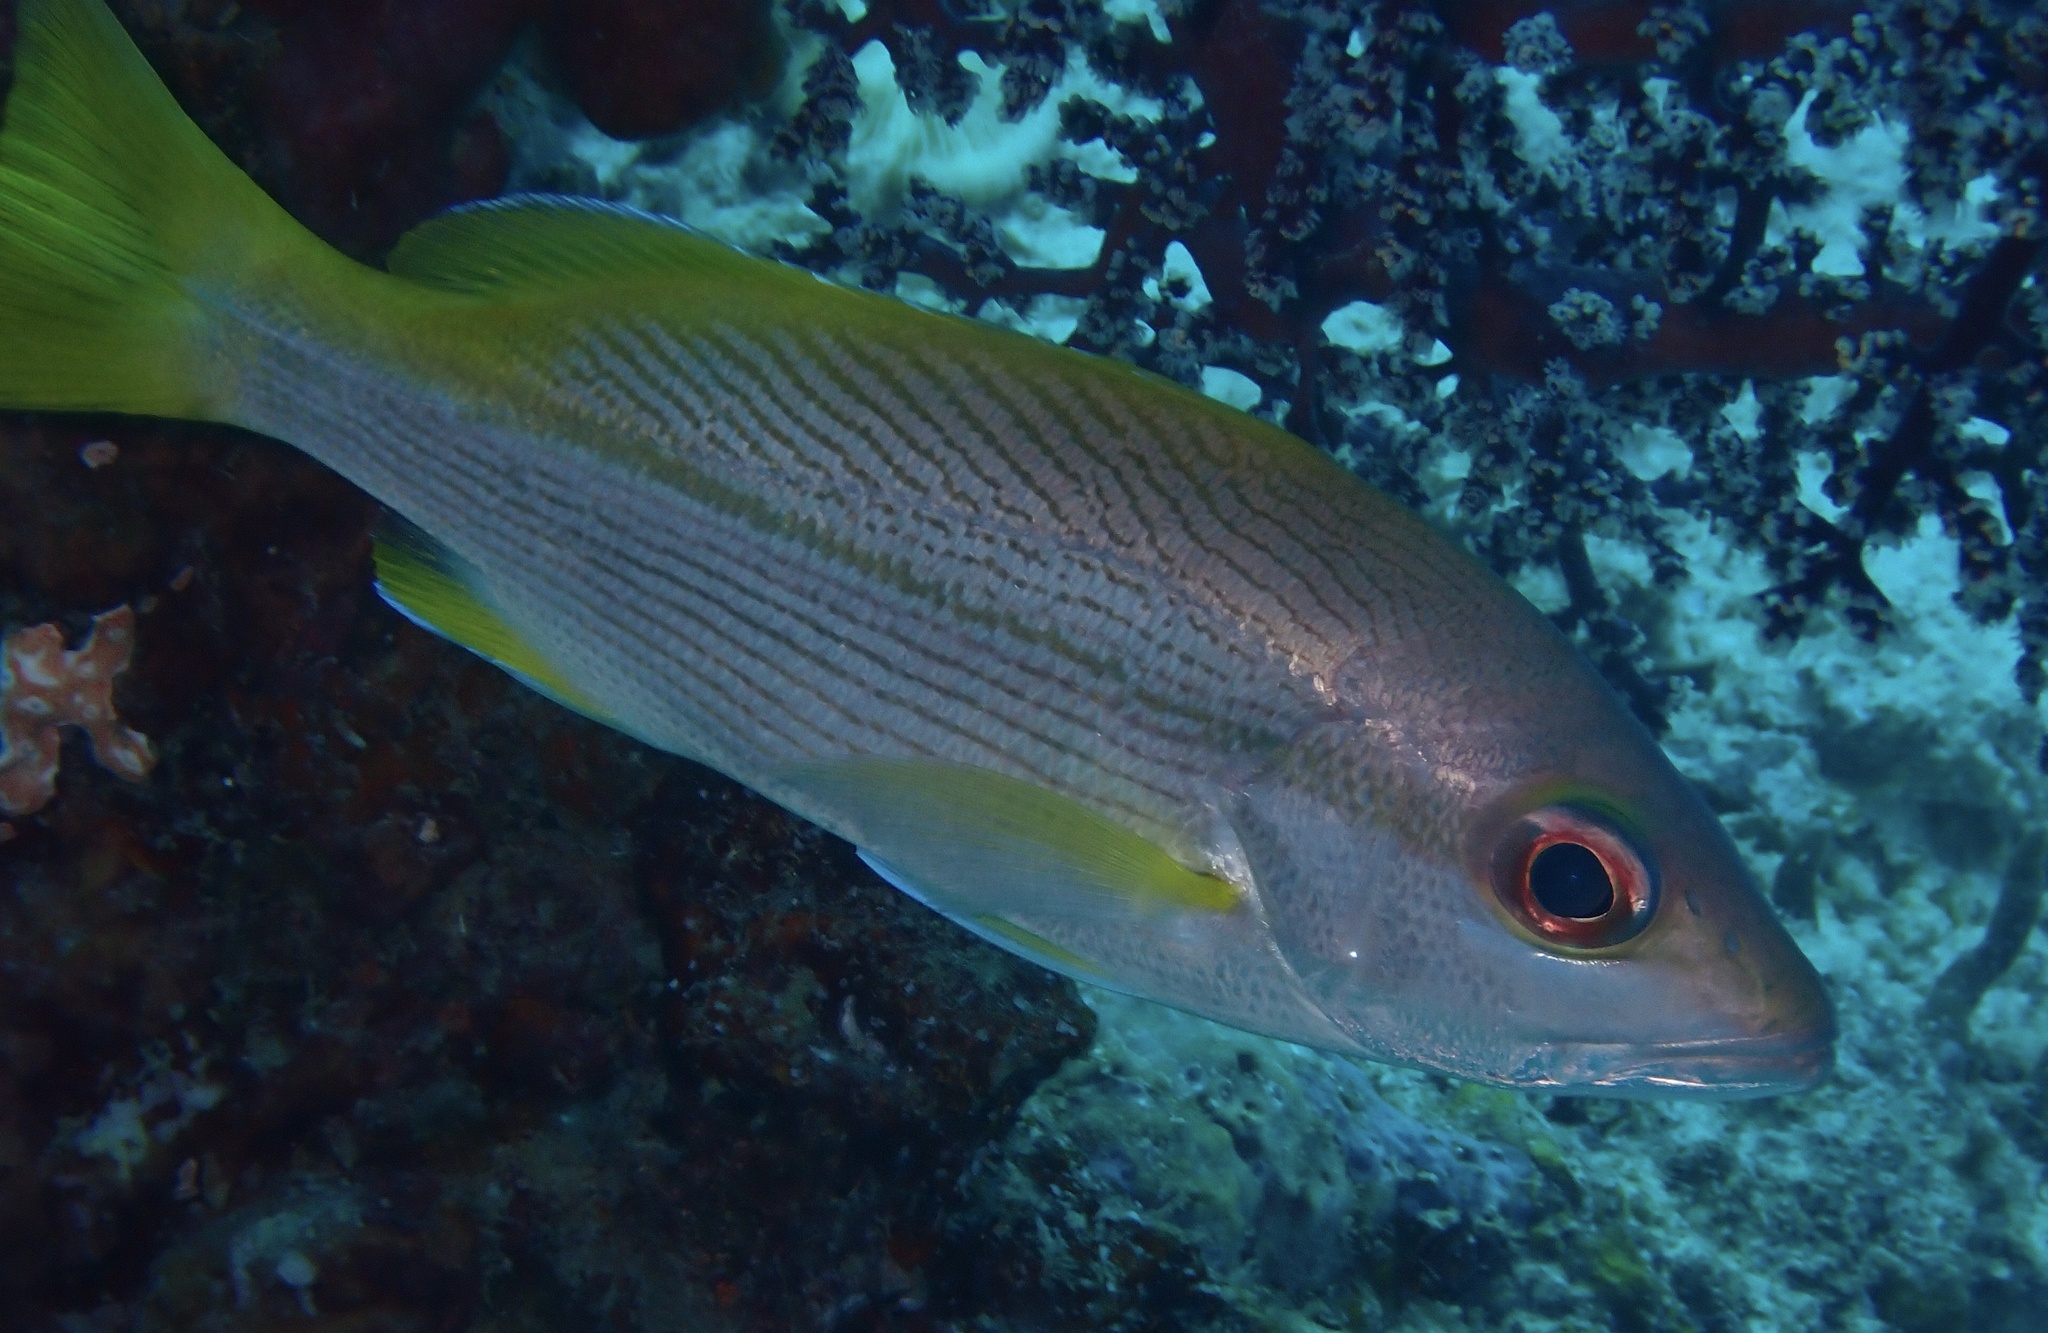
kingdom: Animalia
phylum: Chordata
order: Perciformes
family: Lutjanidae
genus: Lutjanus
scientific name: Lutjanus vitta
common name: Brownstripe red snapper
